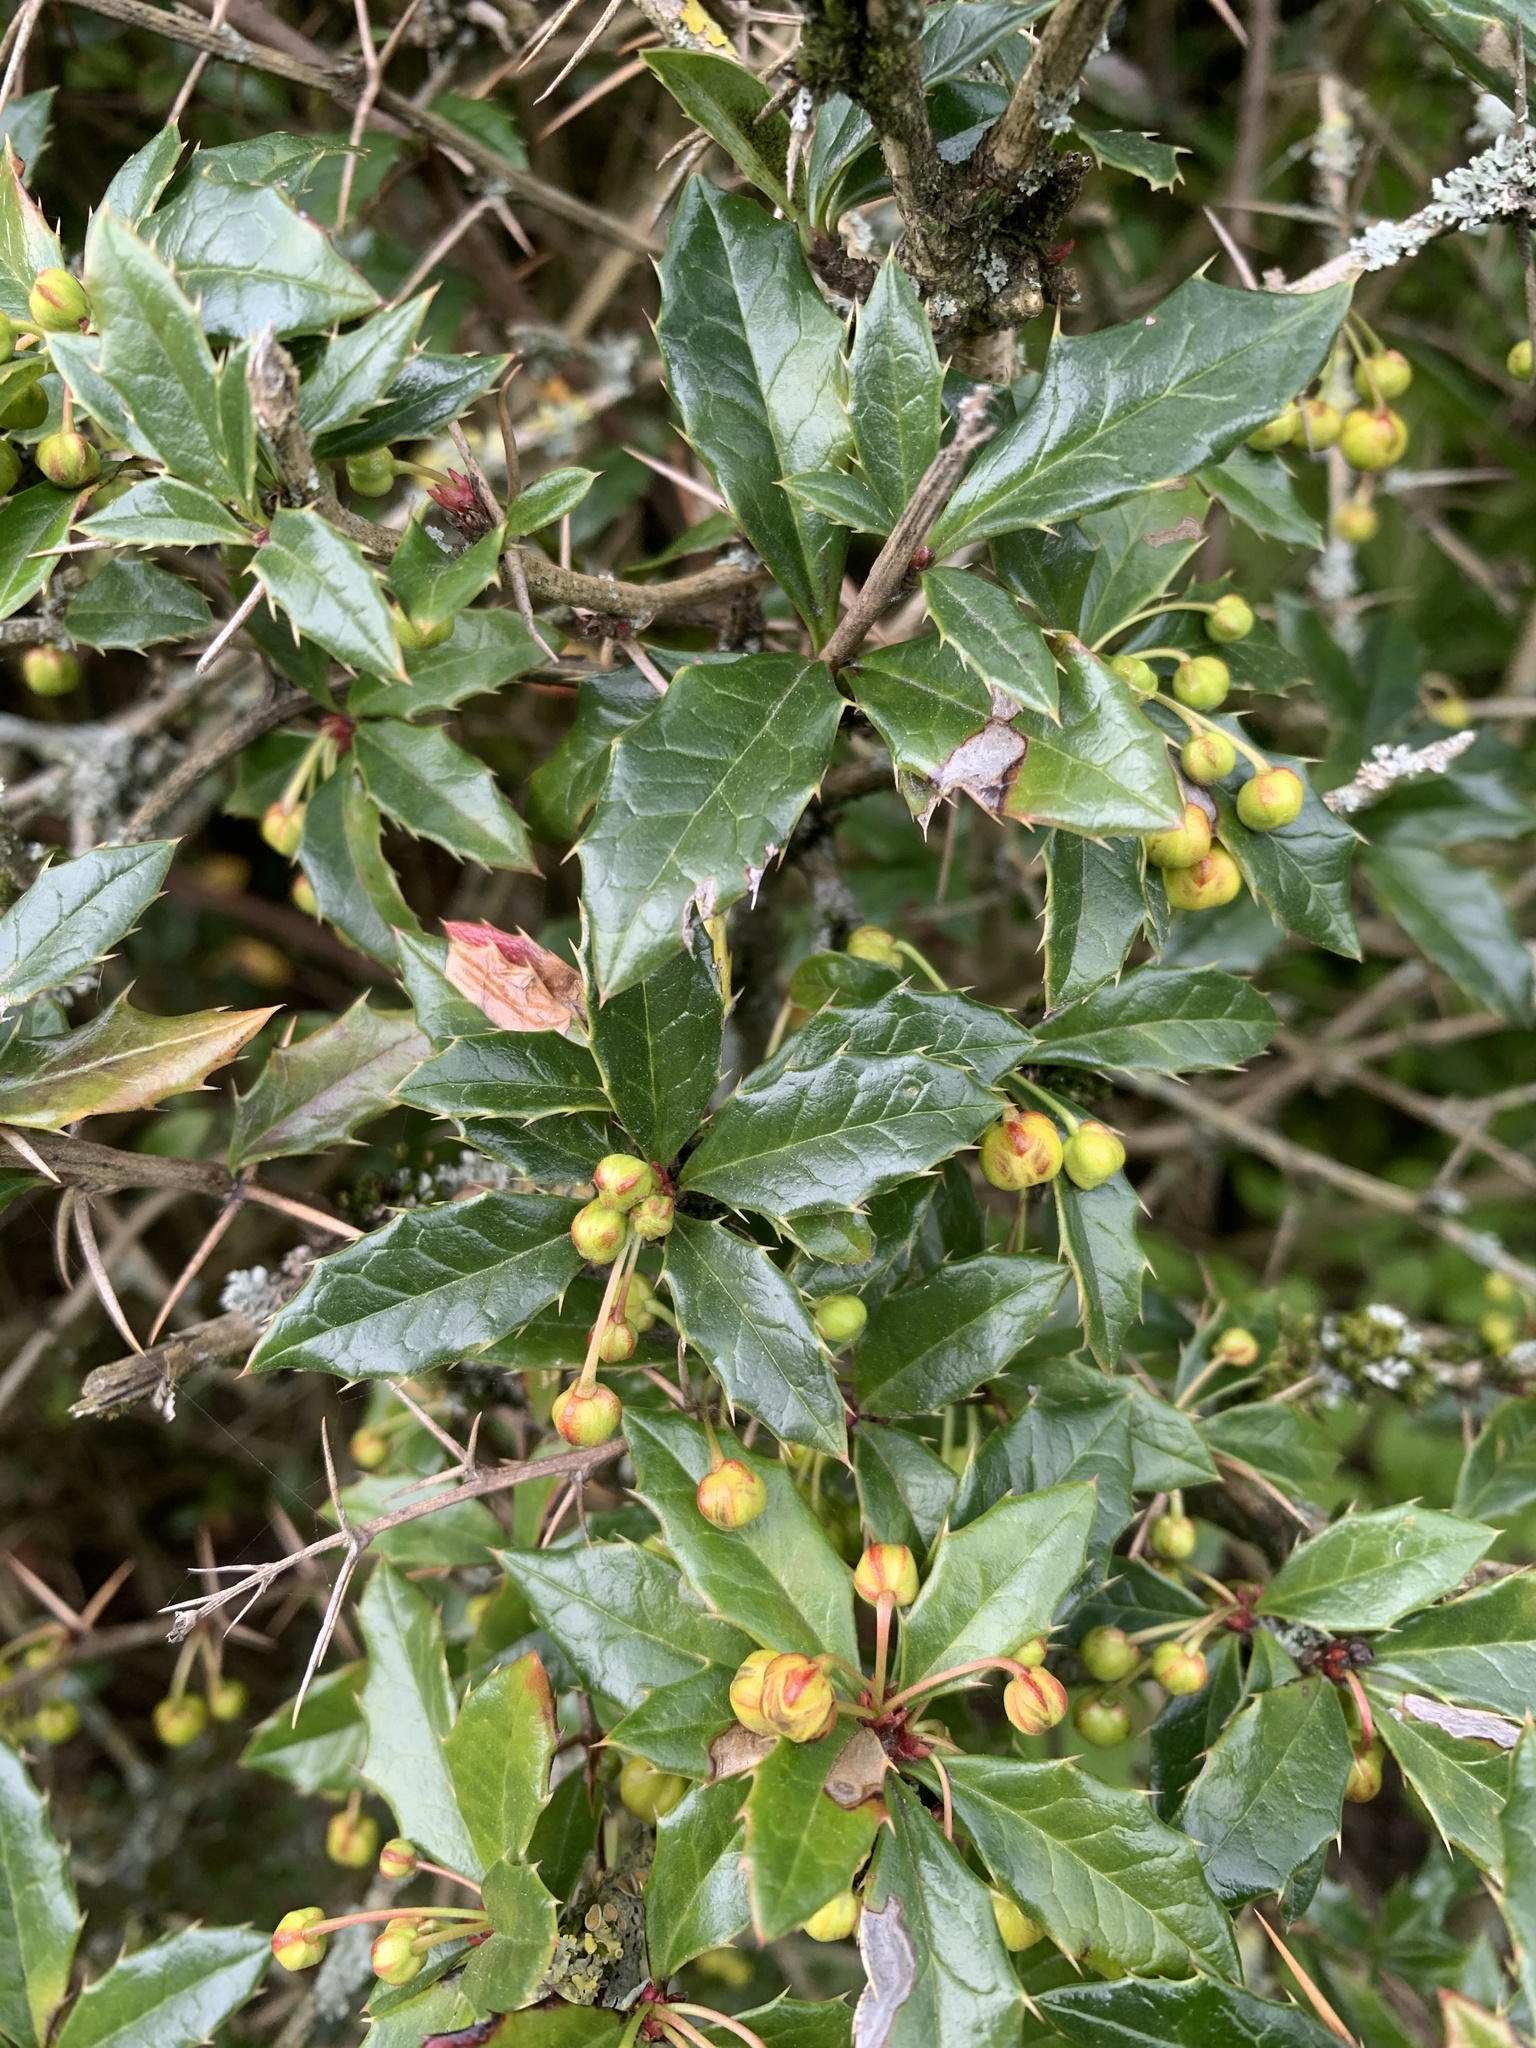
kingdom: Plantae
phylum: Tracheophyta
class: Magnoliopsida
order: Ranunculales
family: Berberidaceae
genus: Berberis
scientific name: Berberis darwinii
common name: Darwin's barberry
